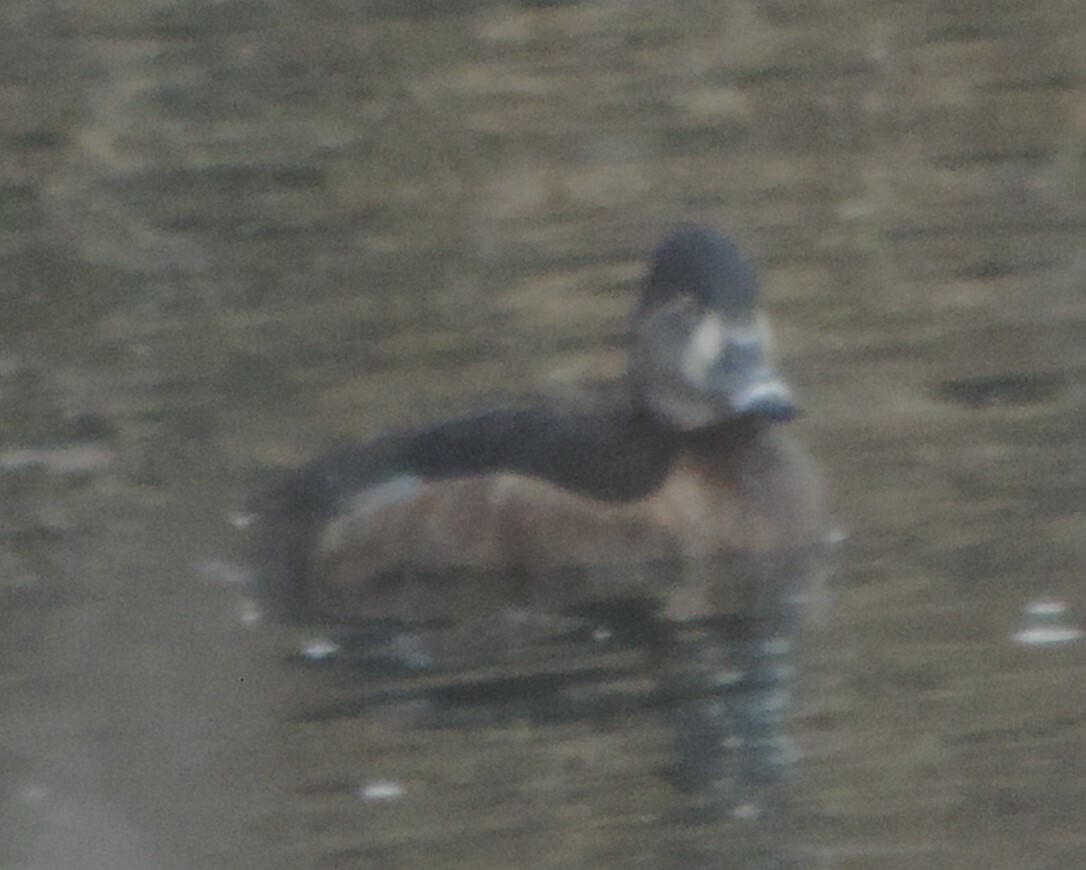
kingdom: Animalia
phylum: Chordata
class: Aves
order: Anseriformes
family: Anatidae
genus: Aythya
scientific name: Aythya collaris
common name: Ring-necked duck
